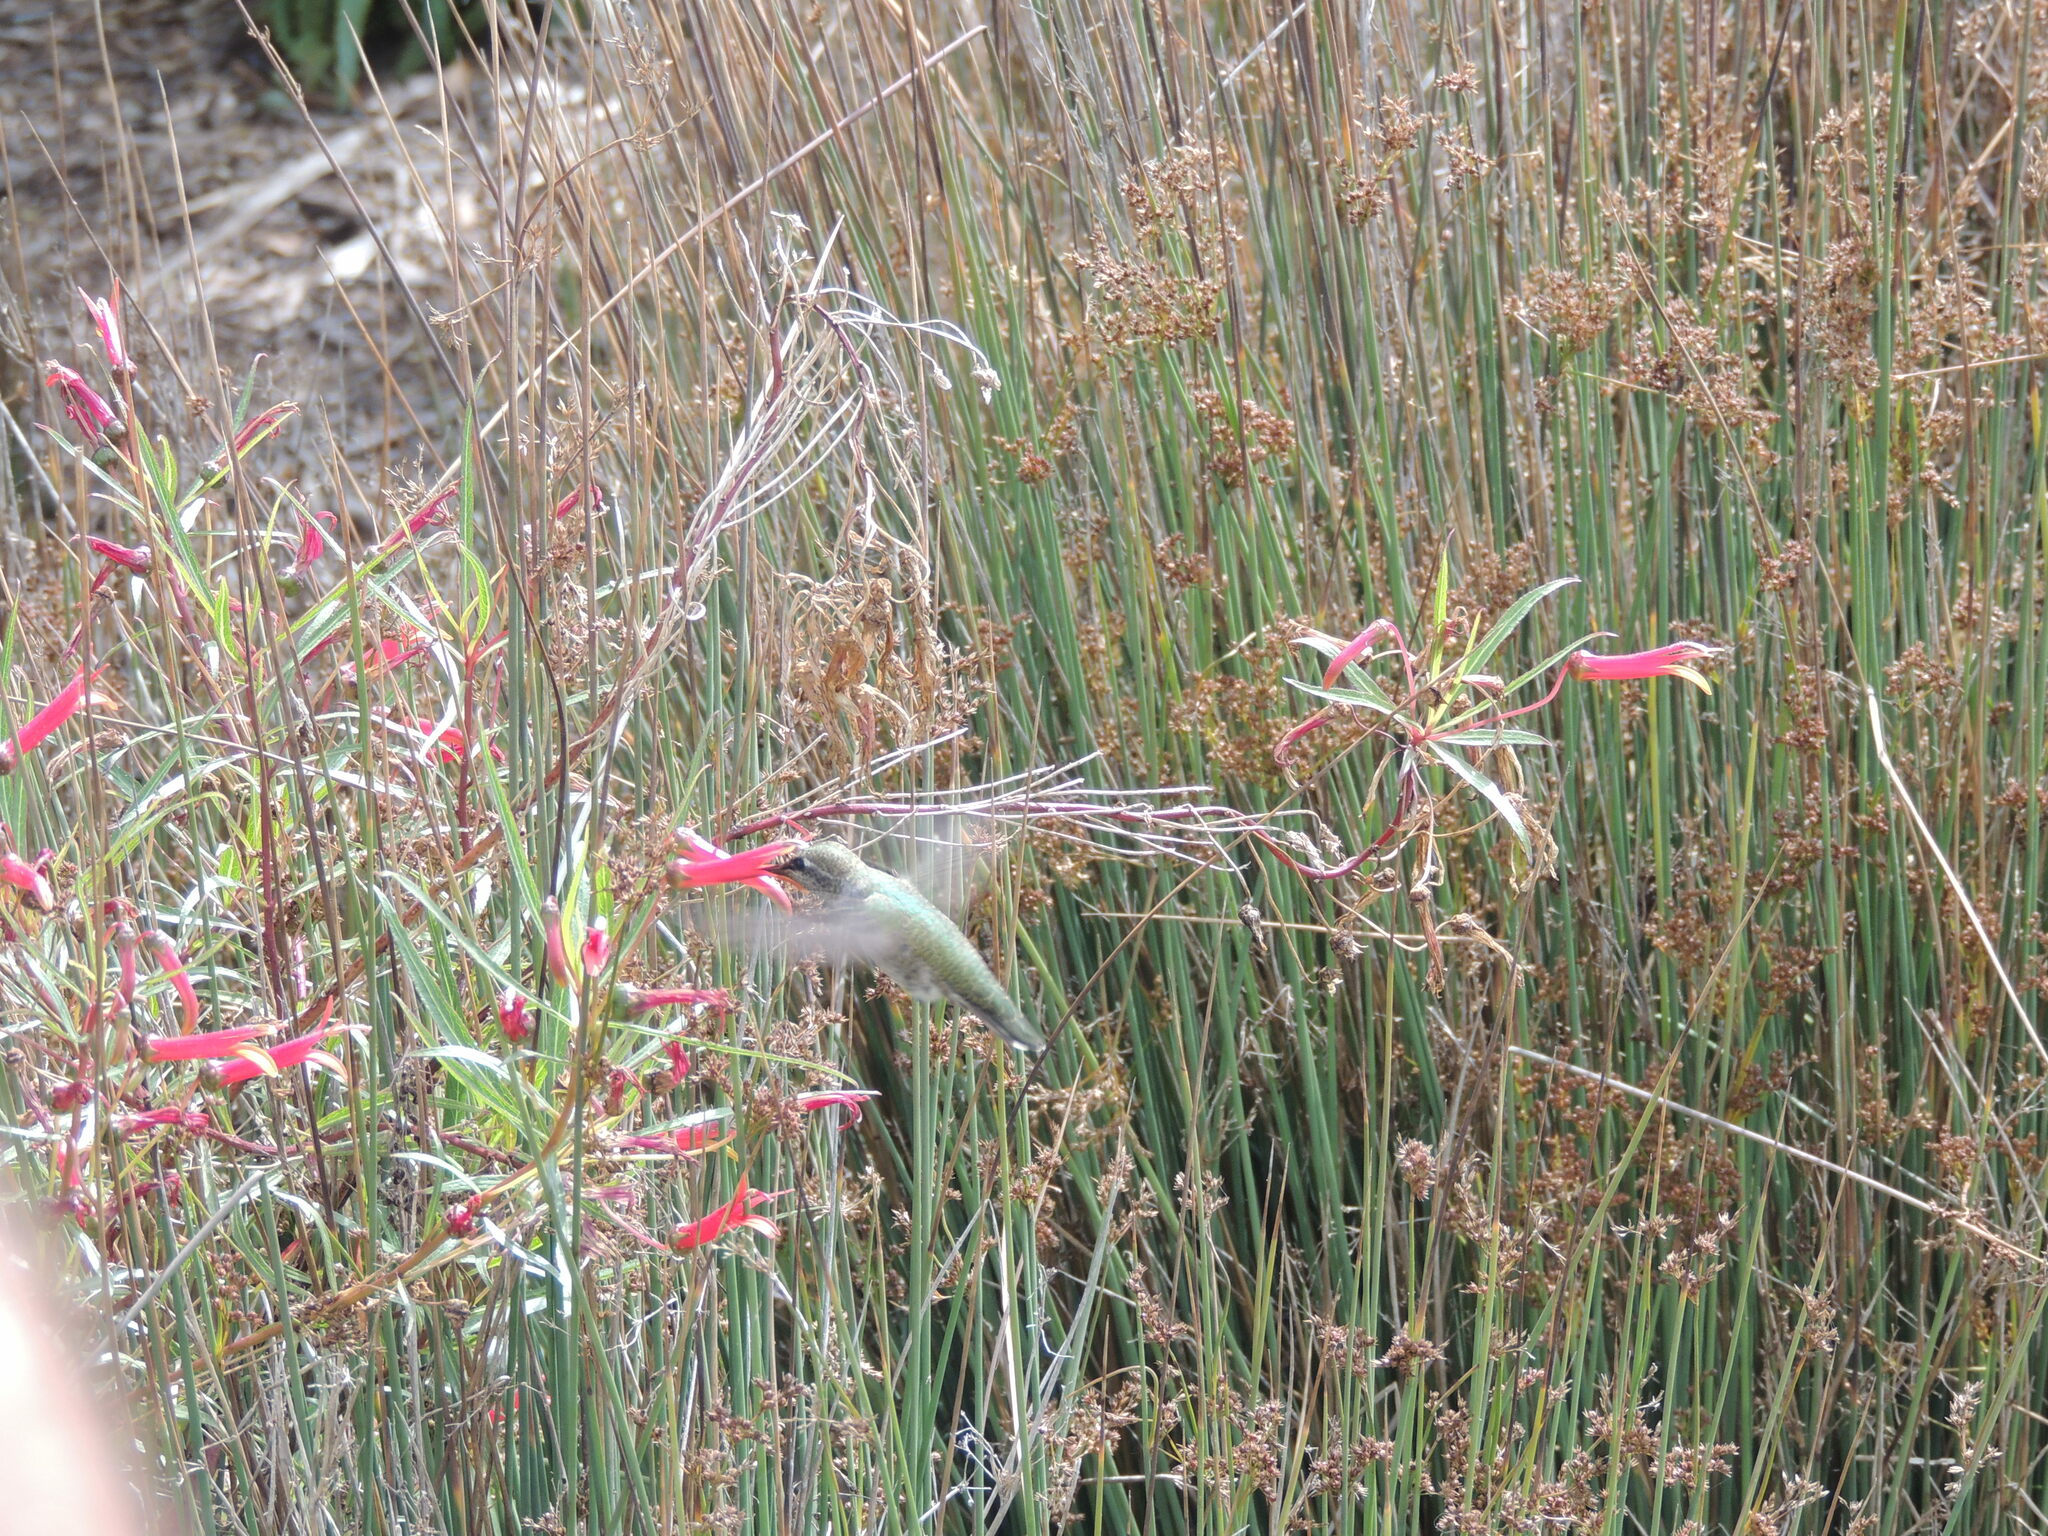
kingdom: Animalia
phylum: Chordata
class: Aves
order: Apodiformes
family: Trochilidae
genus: Calypte
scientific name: Calypte anna
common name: Anna's hummingbird
